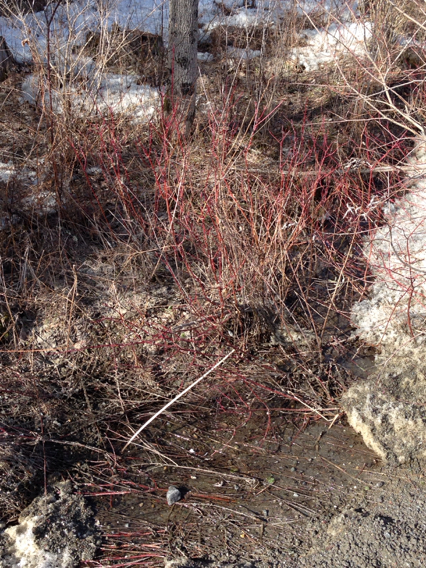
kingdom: Plantae
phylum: Tracheophyta
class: Magnoliopsida
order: Cornales
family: Cornaceae
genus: Cornus
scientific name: Cornus sericea
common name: Red-osier dogwood
